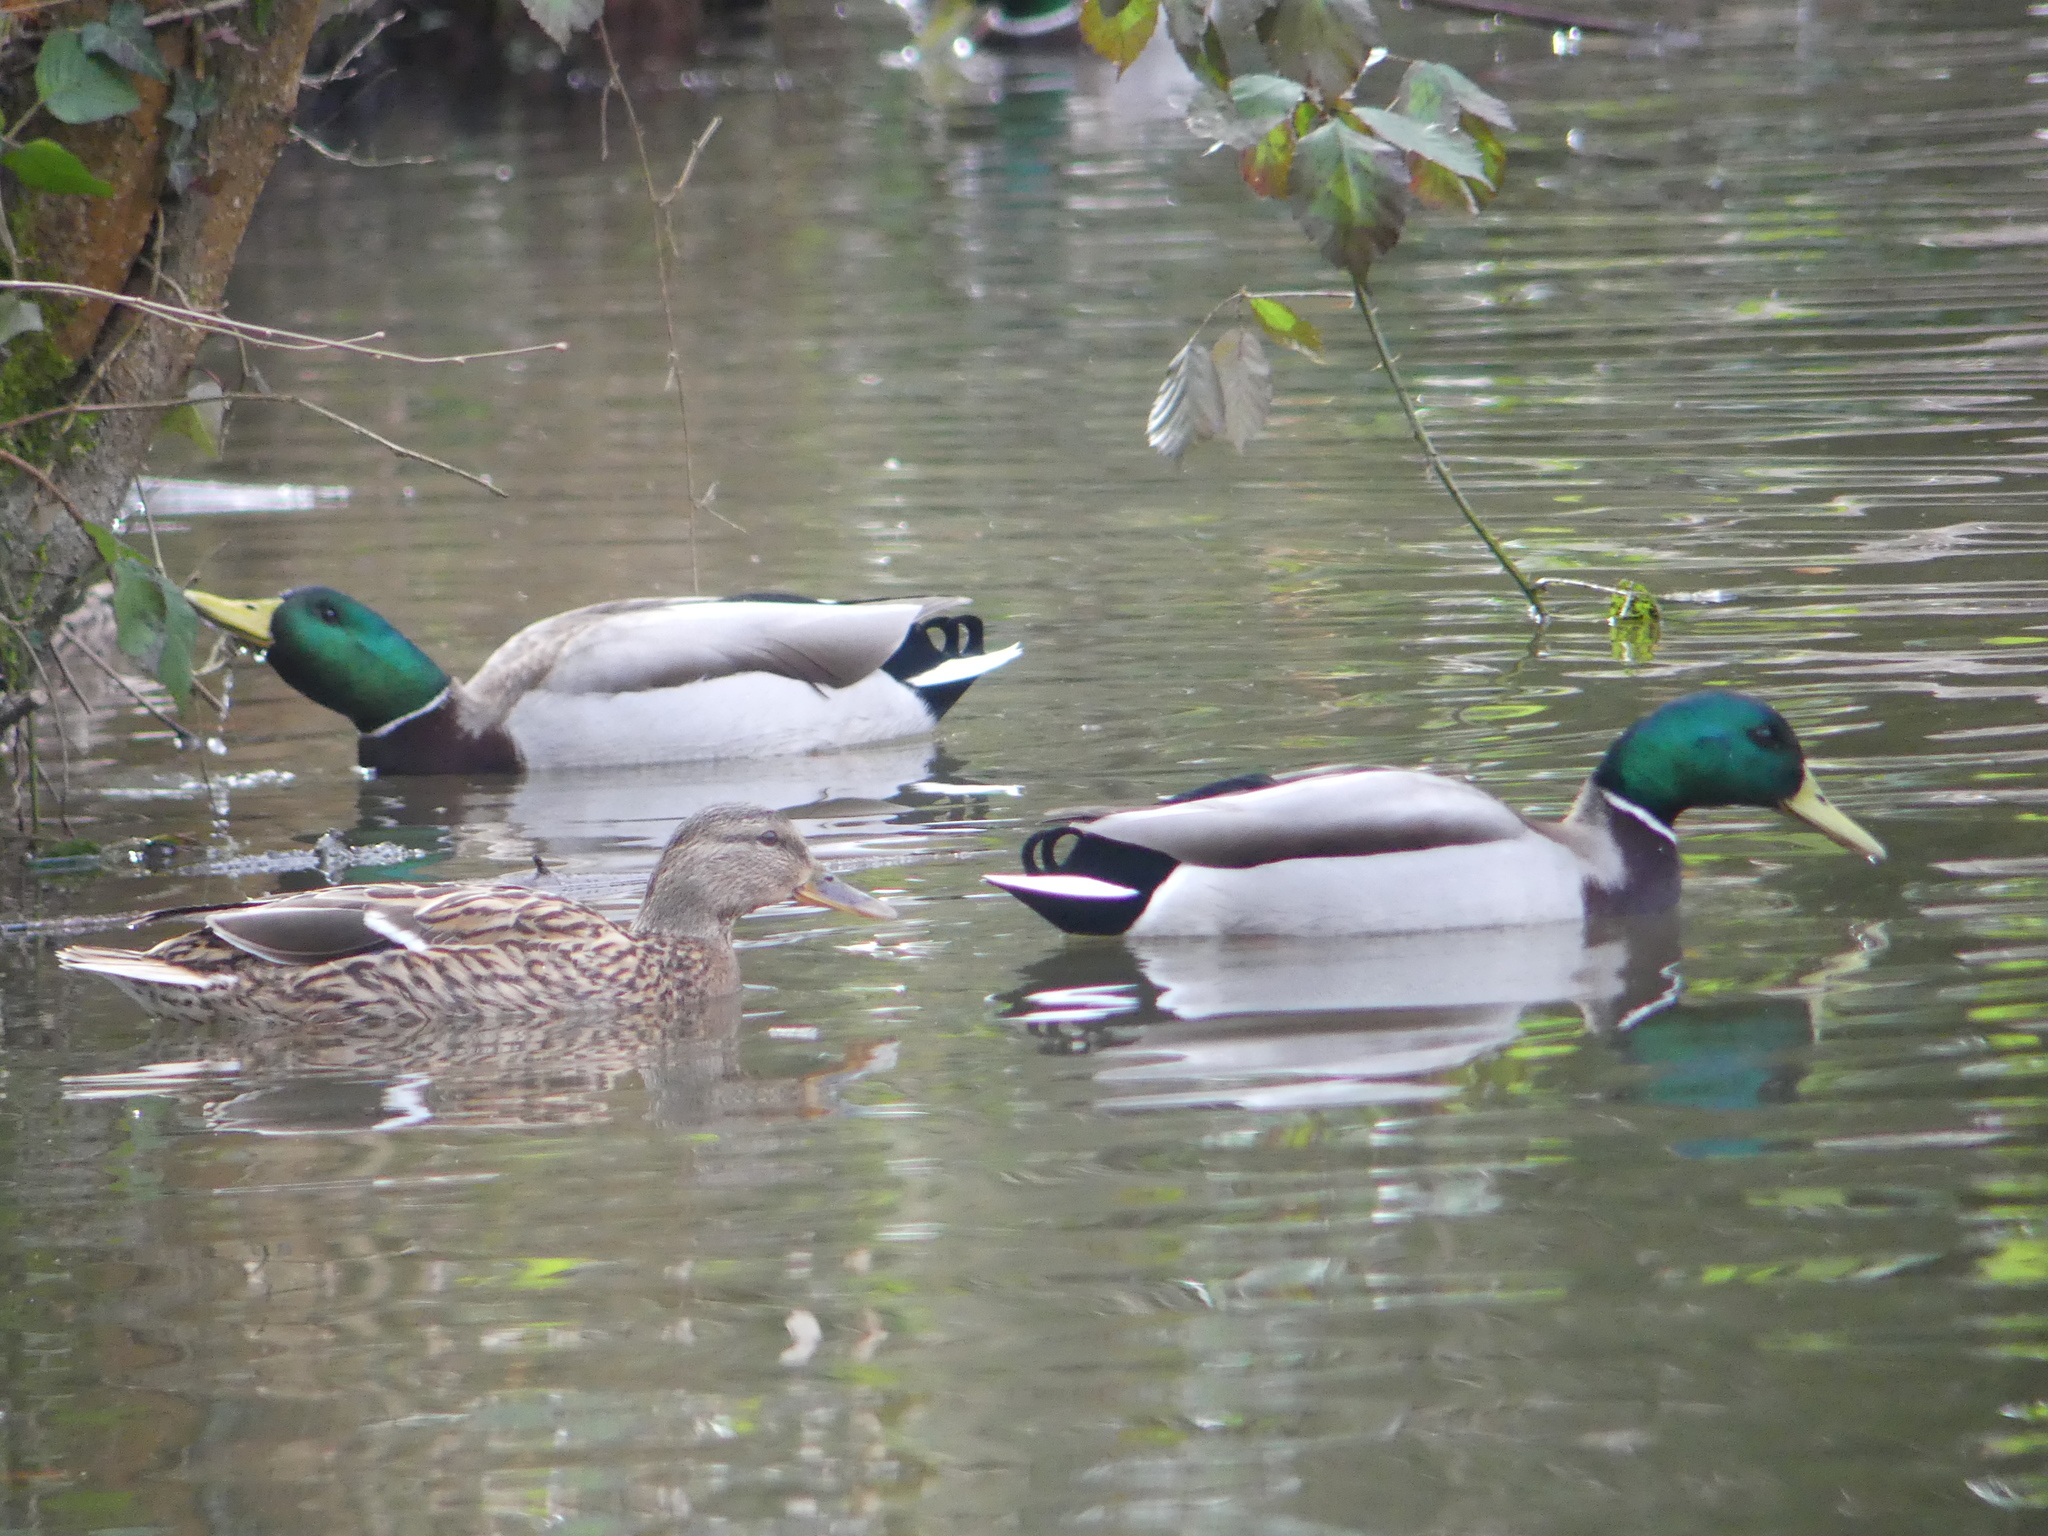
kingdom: Animalia
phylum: Chordata
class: Aves
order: Anseriformes
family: Anatidae
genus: Anas
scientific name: Anas platyrhynchos
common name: Mallard
